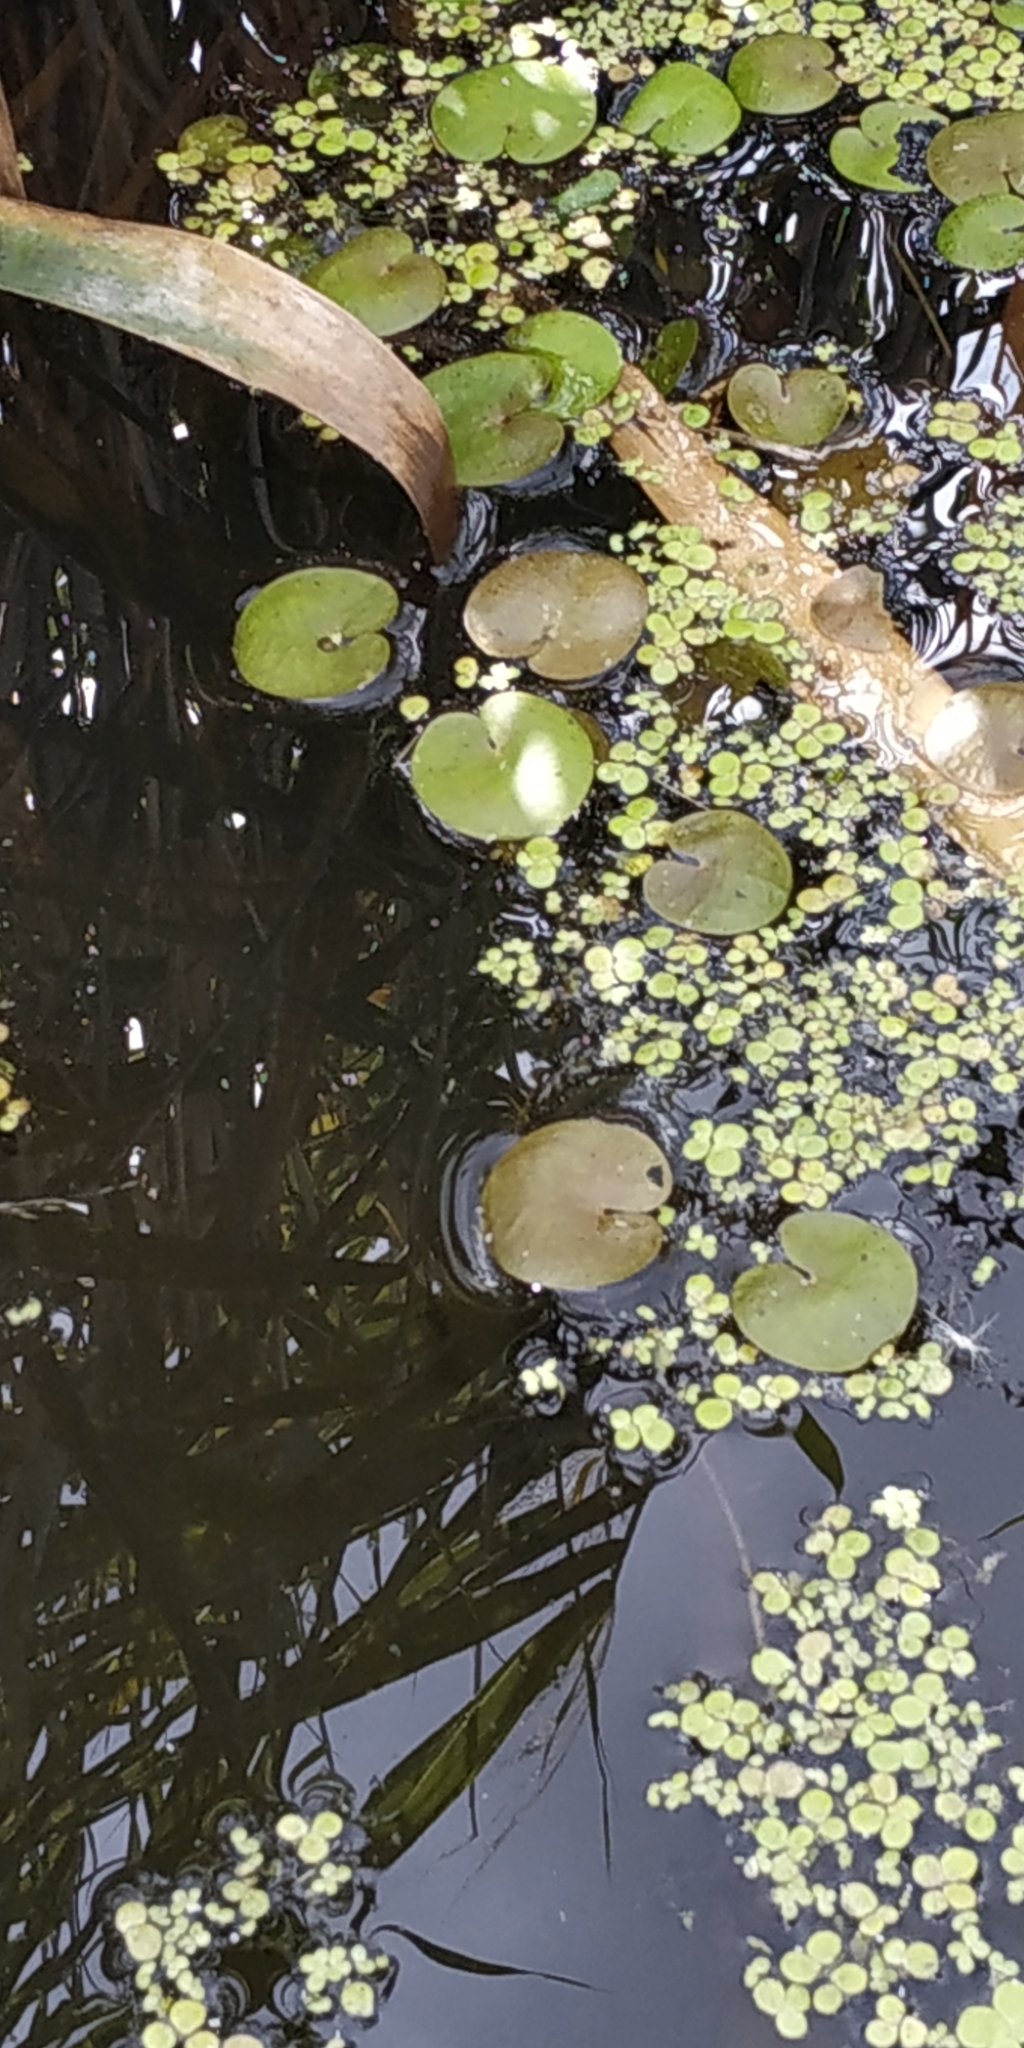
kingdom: Plantae
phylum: Tracheophyta
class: Liliopsida
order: Alismatales
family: Hydrocharitaceae
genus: Hydrocharis
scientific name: Hydrocharis morsus-ranae
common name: Frogbit
